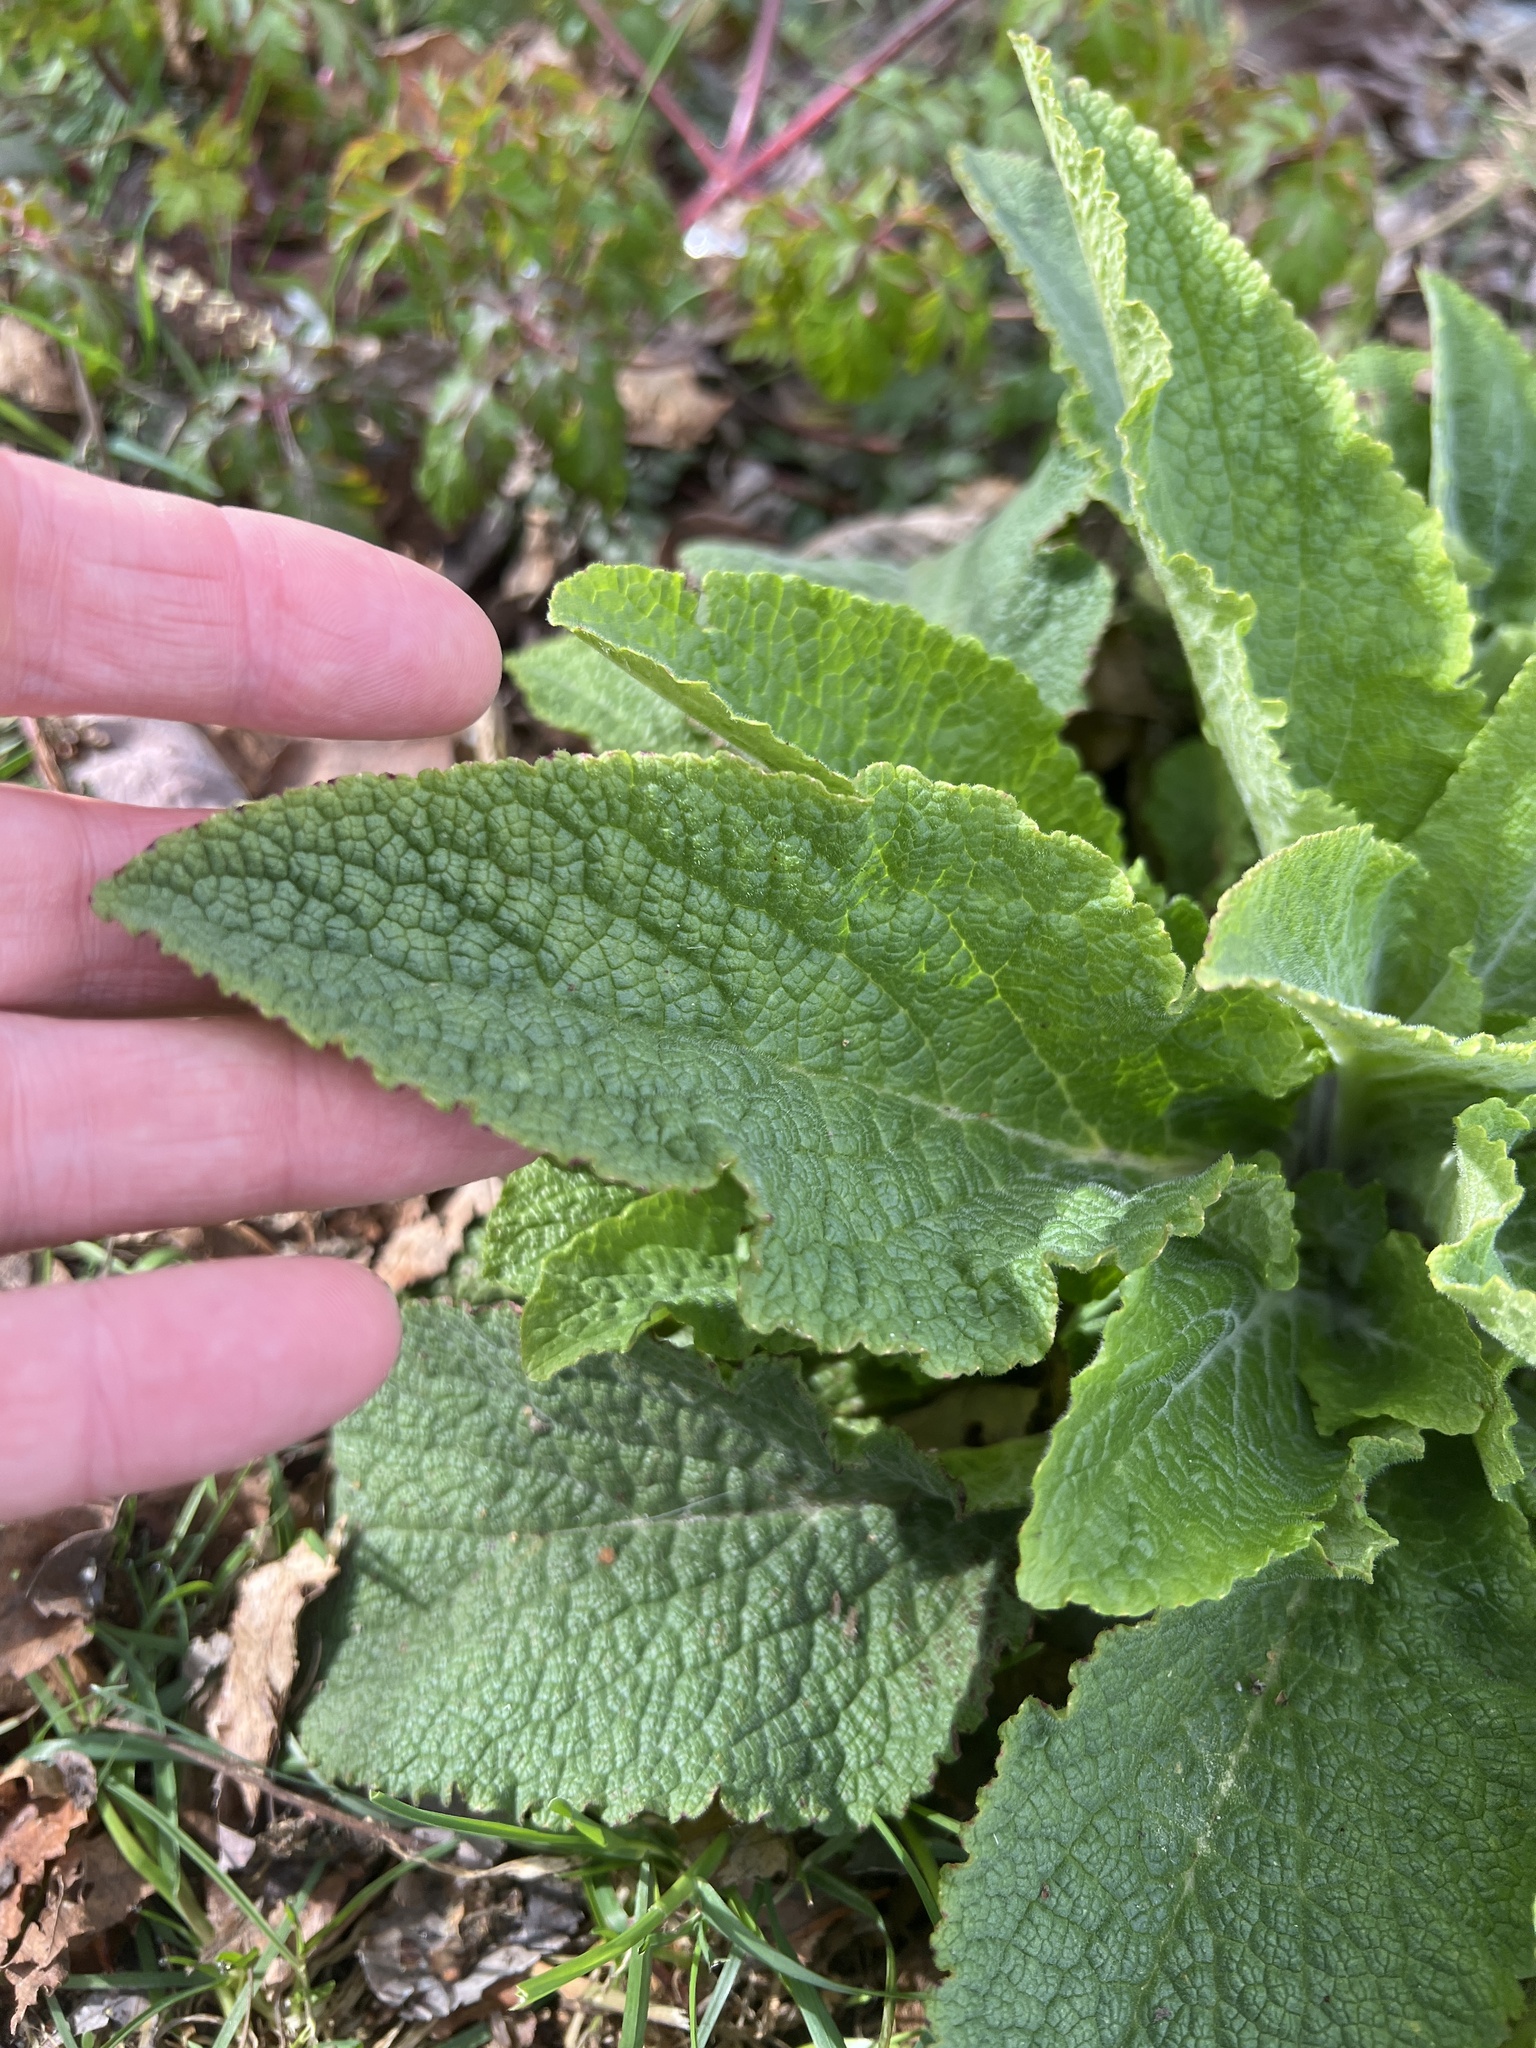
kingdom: Plantae
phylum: Tracheophyta
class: Magnoliopsida
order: Lamiales
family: Plantaginaceae
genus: Digitalis
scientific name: Digitalis purpurea
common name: Foxglove
